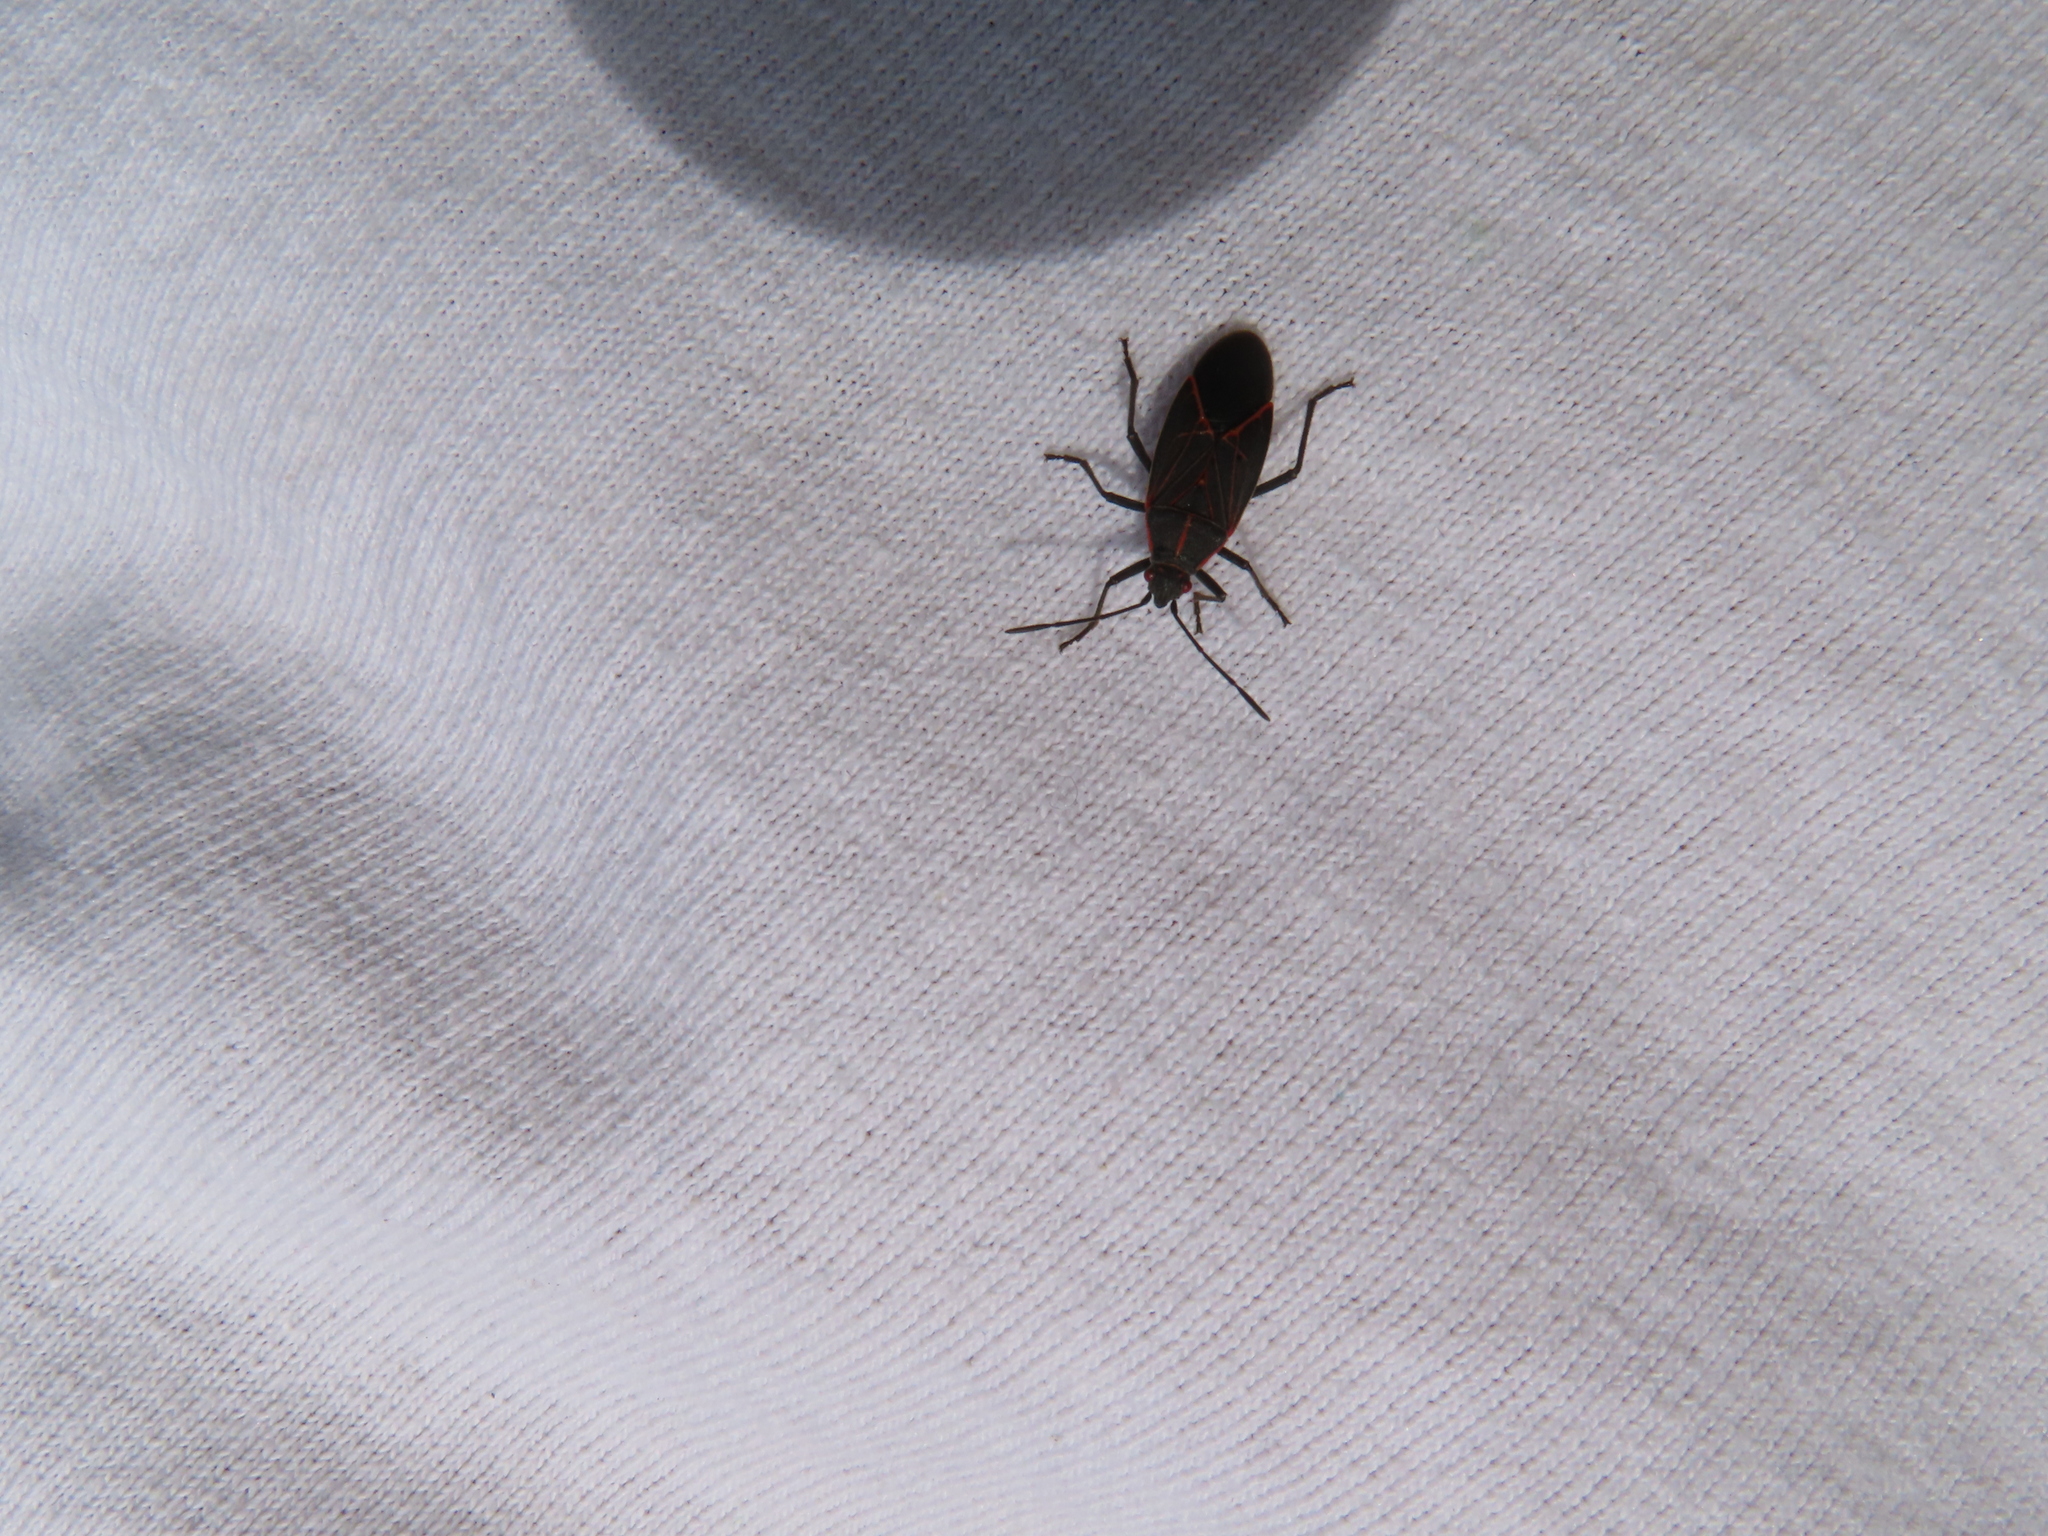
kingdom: Animalia
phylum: Arthropoda
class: Insecta
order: Hemiptera
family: Rhopalidae
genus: Boisea
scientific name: Boisea rubrolineata
